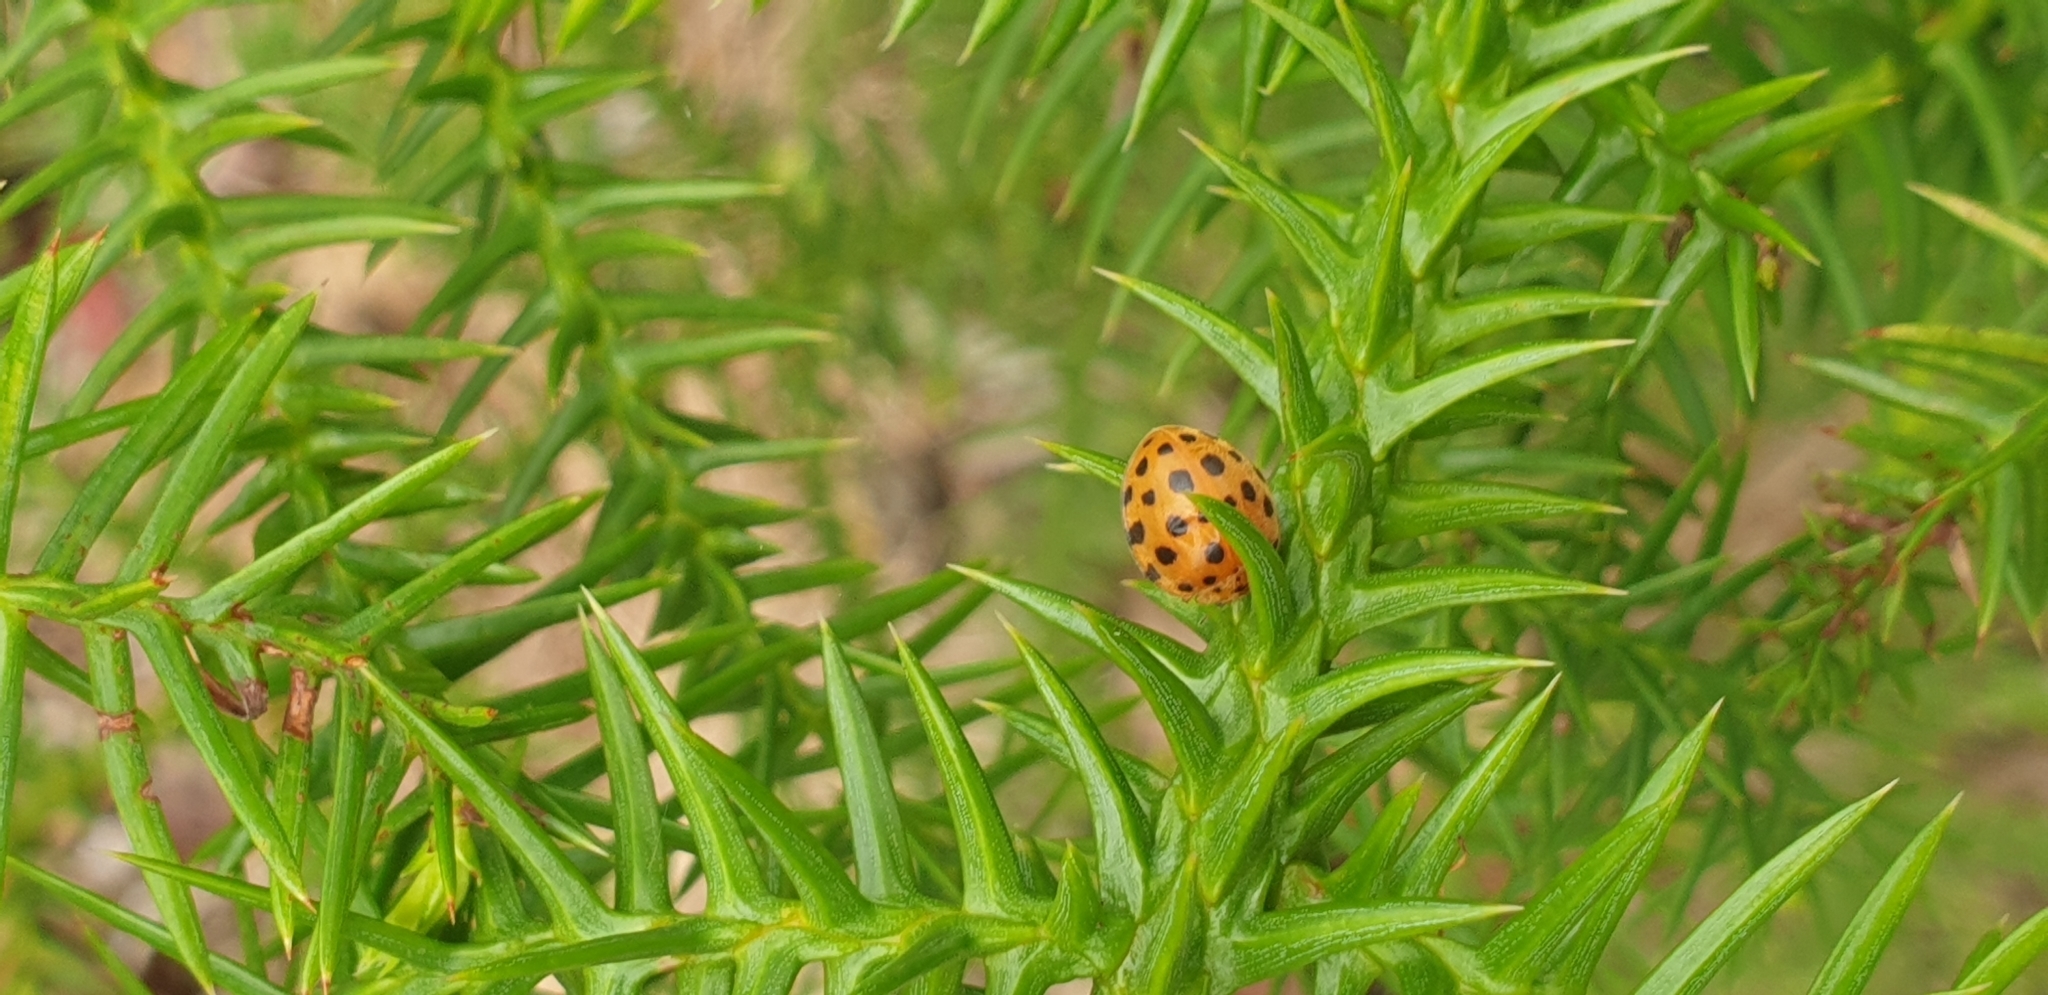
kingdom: Animalia
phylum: Arthropoda
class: Insecta
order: Coleoptera
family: Coccinellidae
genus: Henosepilachna
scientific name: Henosepilachna sumbana
